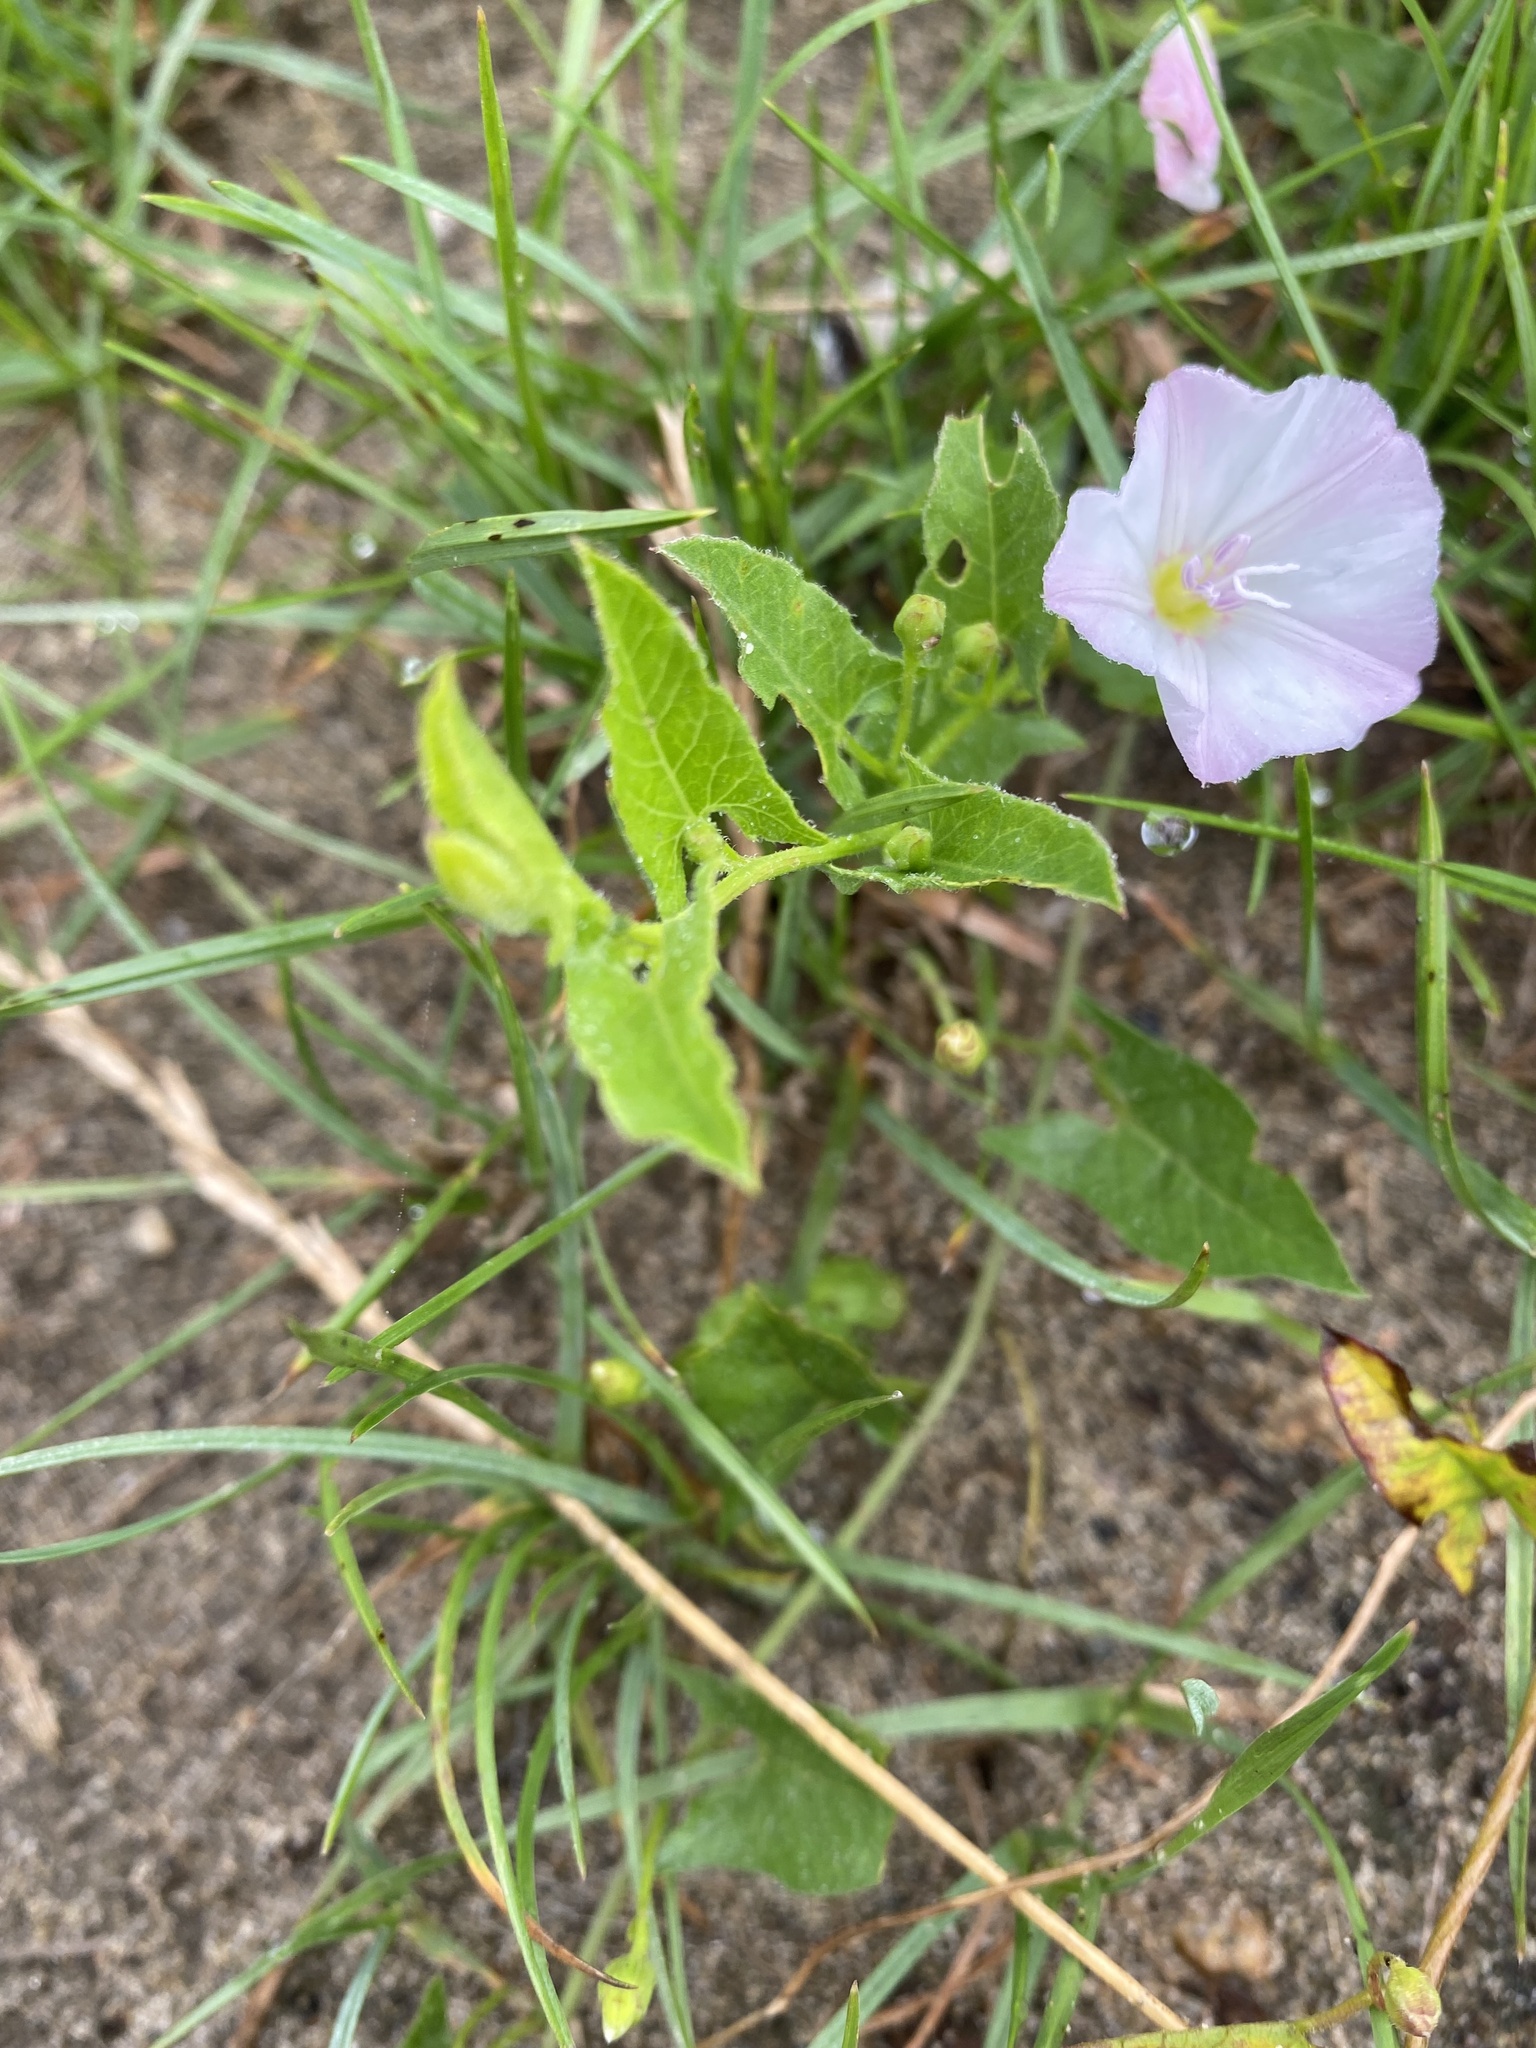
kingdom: Plantae
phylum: Tracheophyta
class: Magnoliopsida
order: Solanales
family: Convolvulaceae
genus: Convolvulus
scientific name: Convolvulus arvensis
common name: Field bindweed
